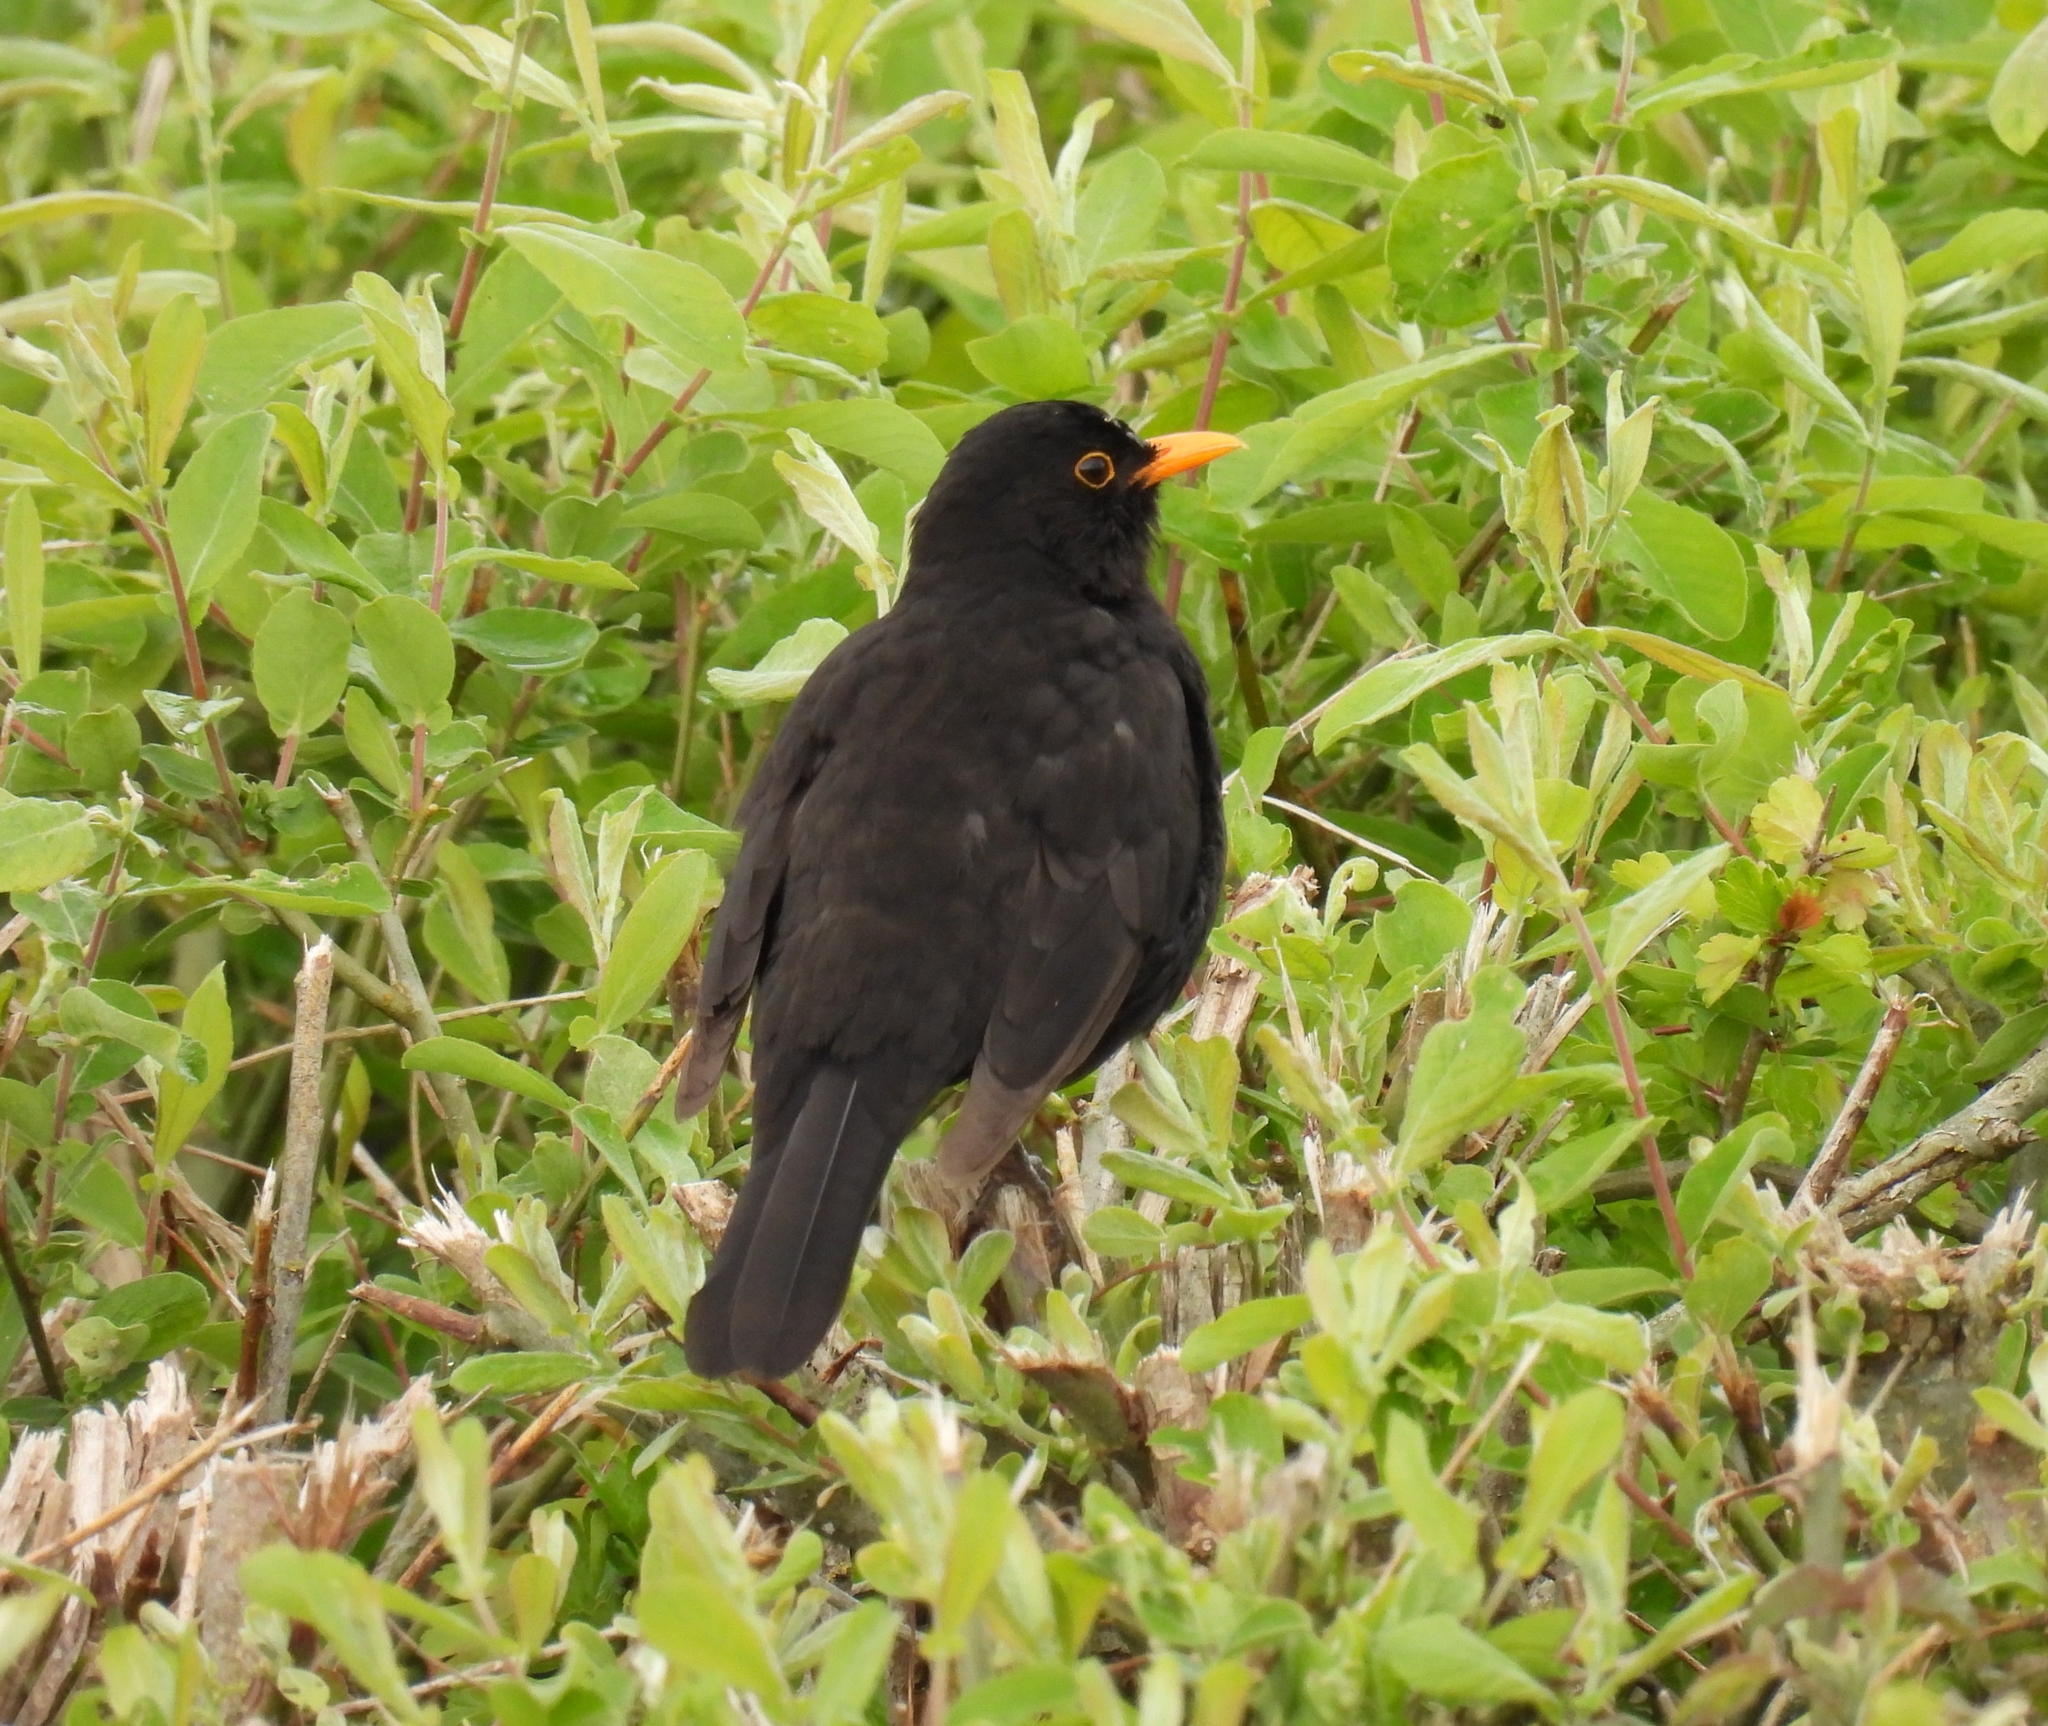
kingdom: Animalia
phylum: Chordata
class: Aves
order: Passeriformes
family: Turdidae
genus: Turdus
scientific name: Turdus merula
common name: Common blackbird
